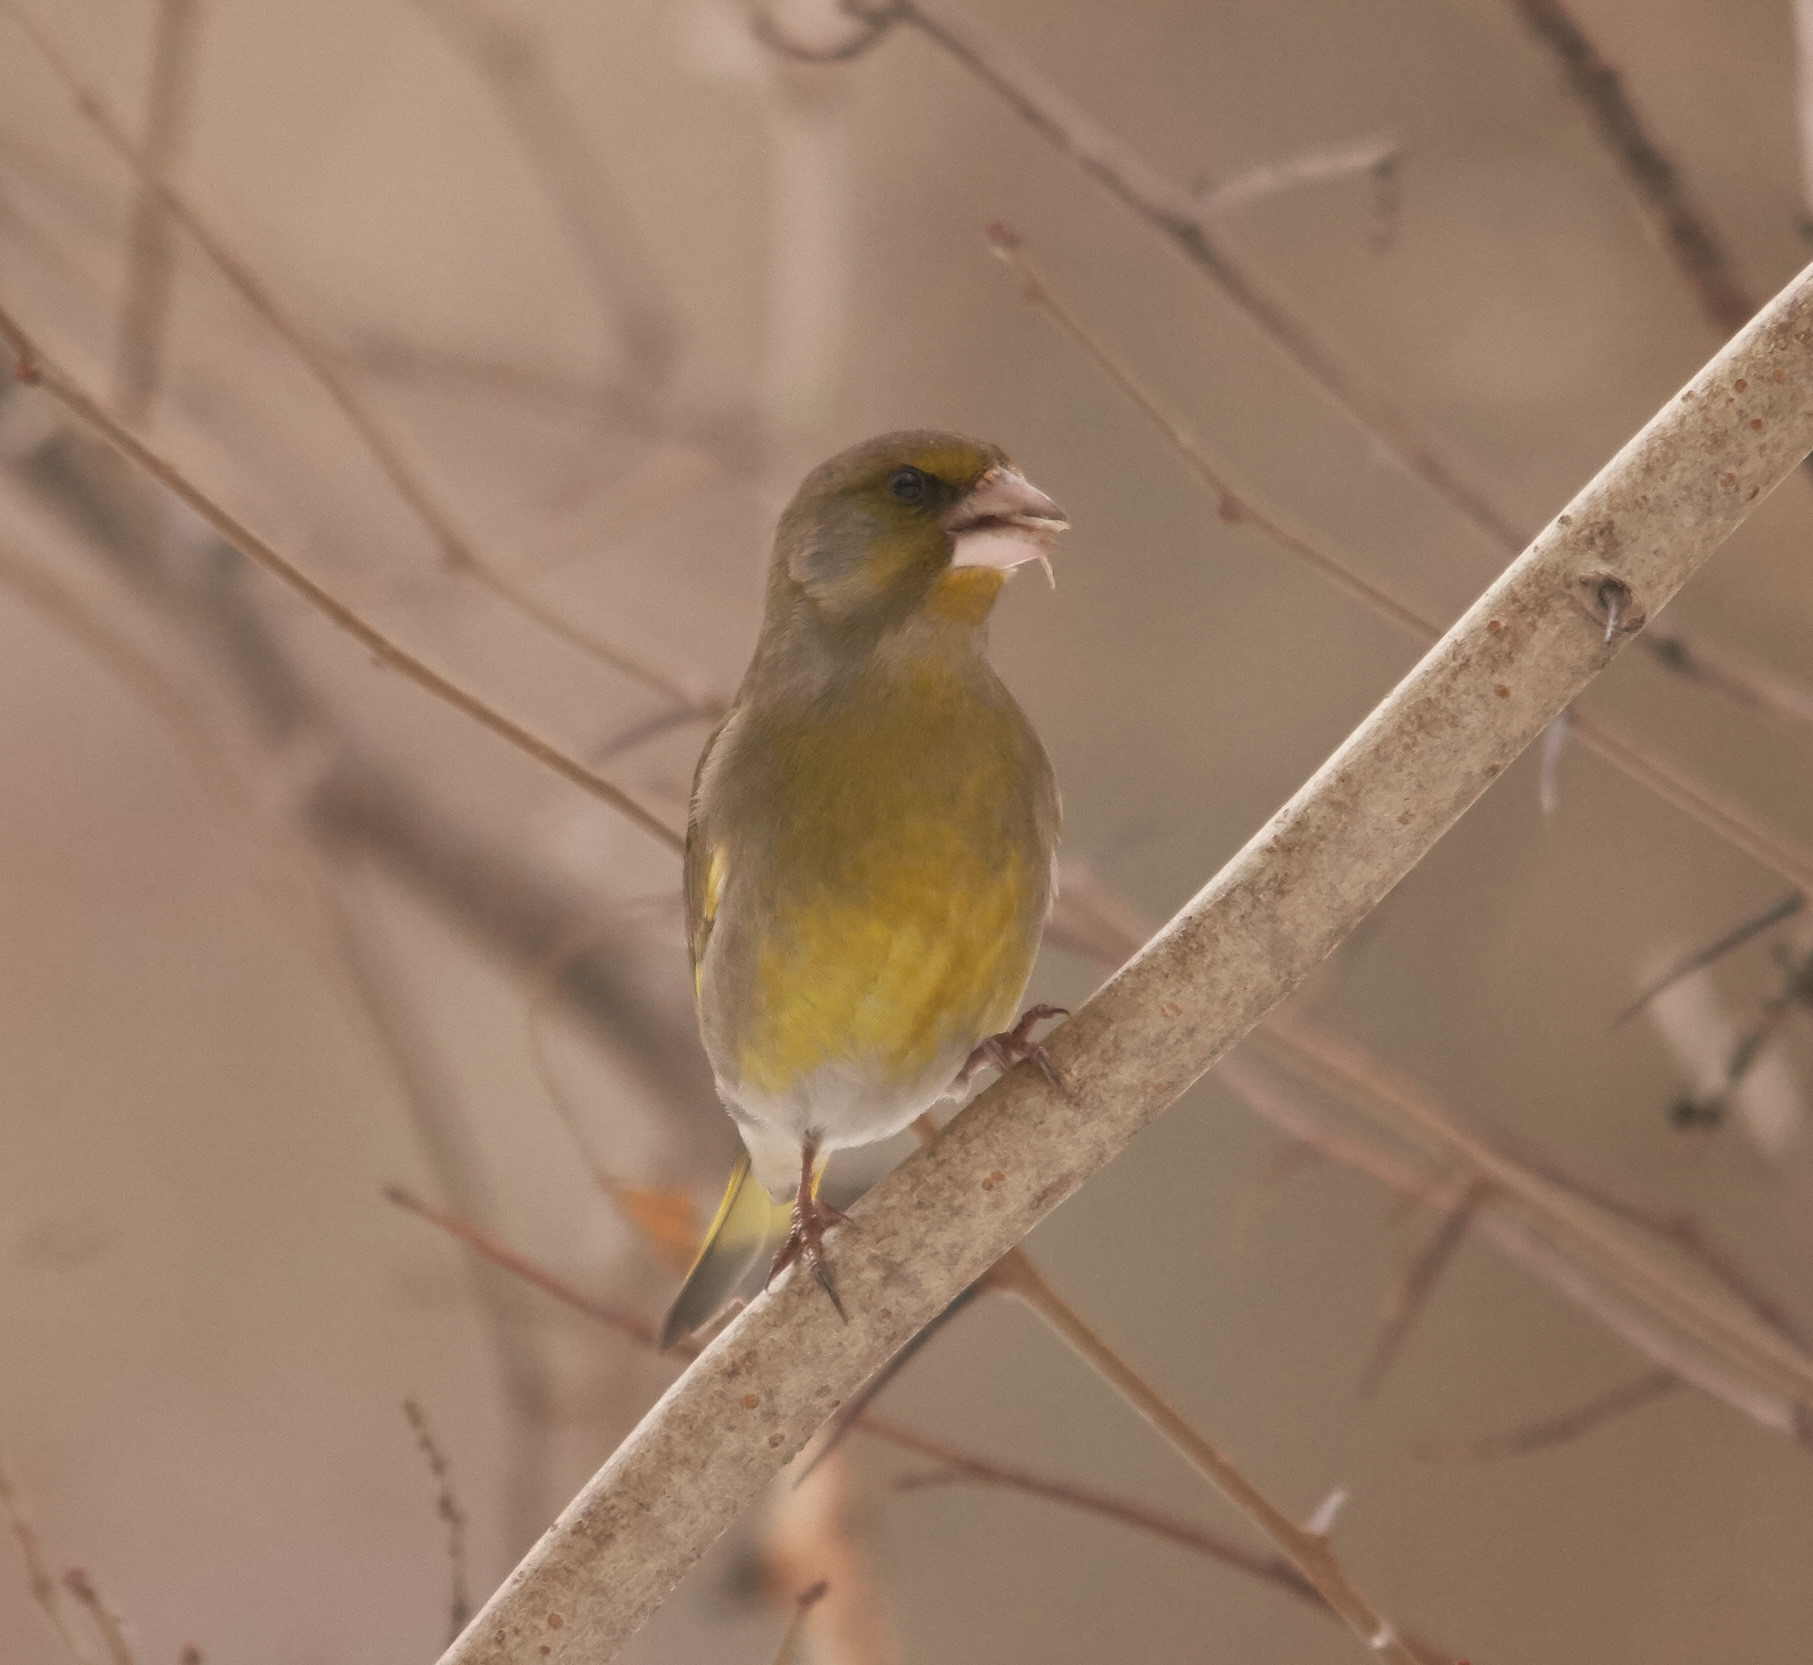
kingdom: Plantae
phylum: Tracheophyta
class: Liliopsida
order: Poales
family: Poaceae
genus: Chloris
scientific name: Chloris chloris
